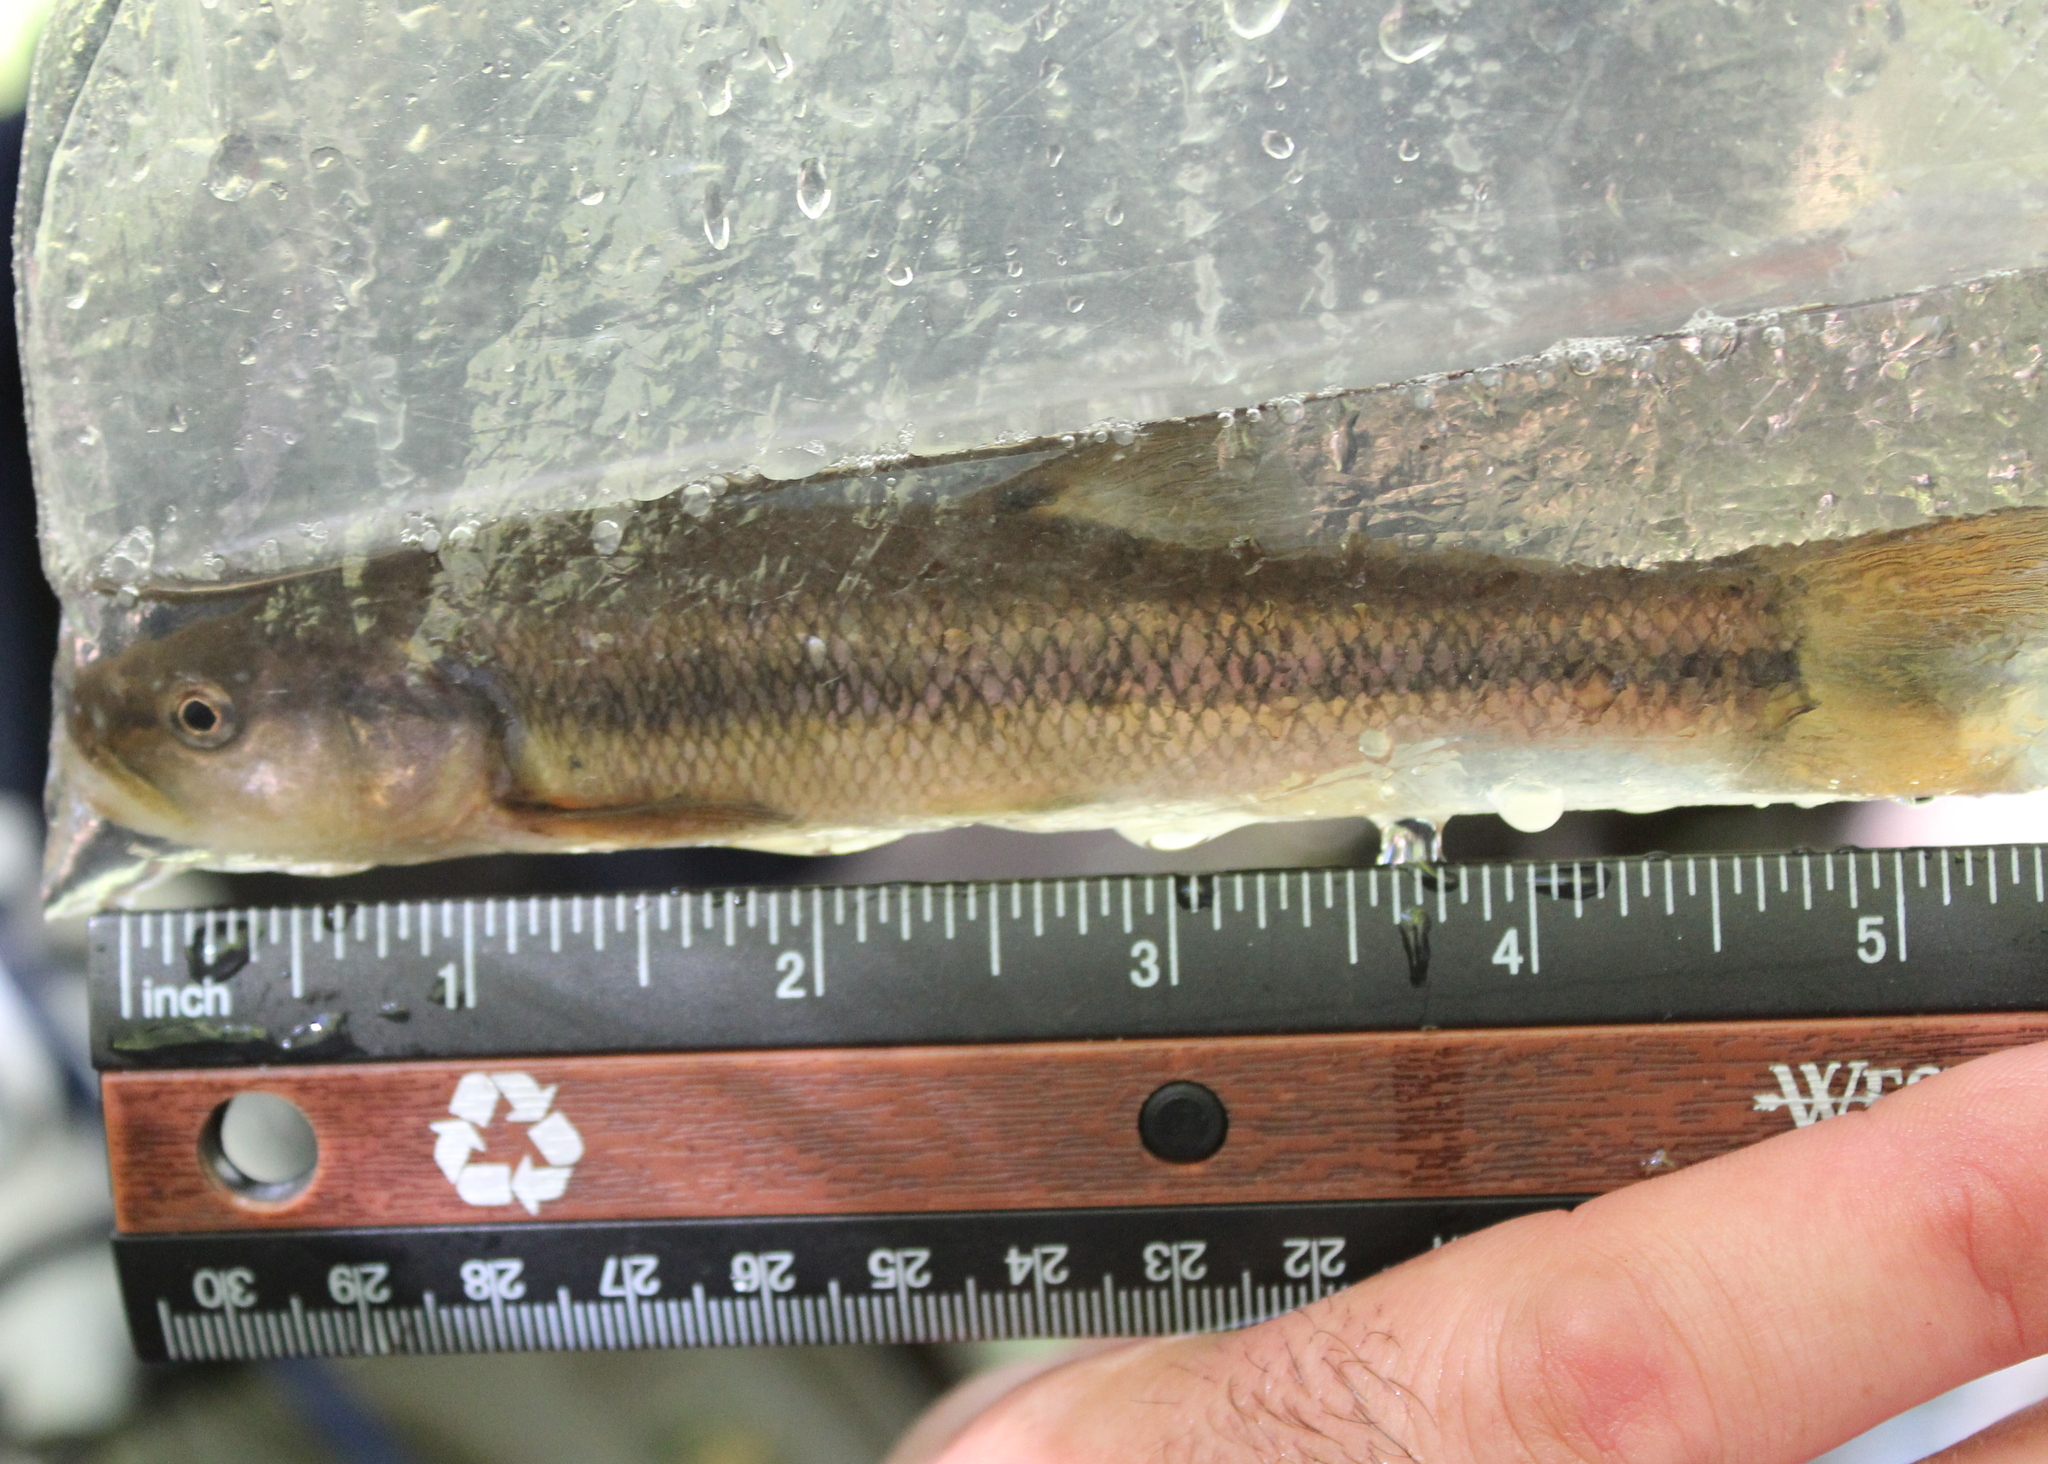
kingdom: Animalia
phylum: Chordata
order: Cypriniformes
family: Cyprinidae
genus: Semotilus
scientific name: Semotilus atromaculatus
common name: Creek chub
